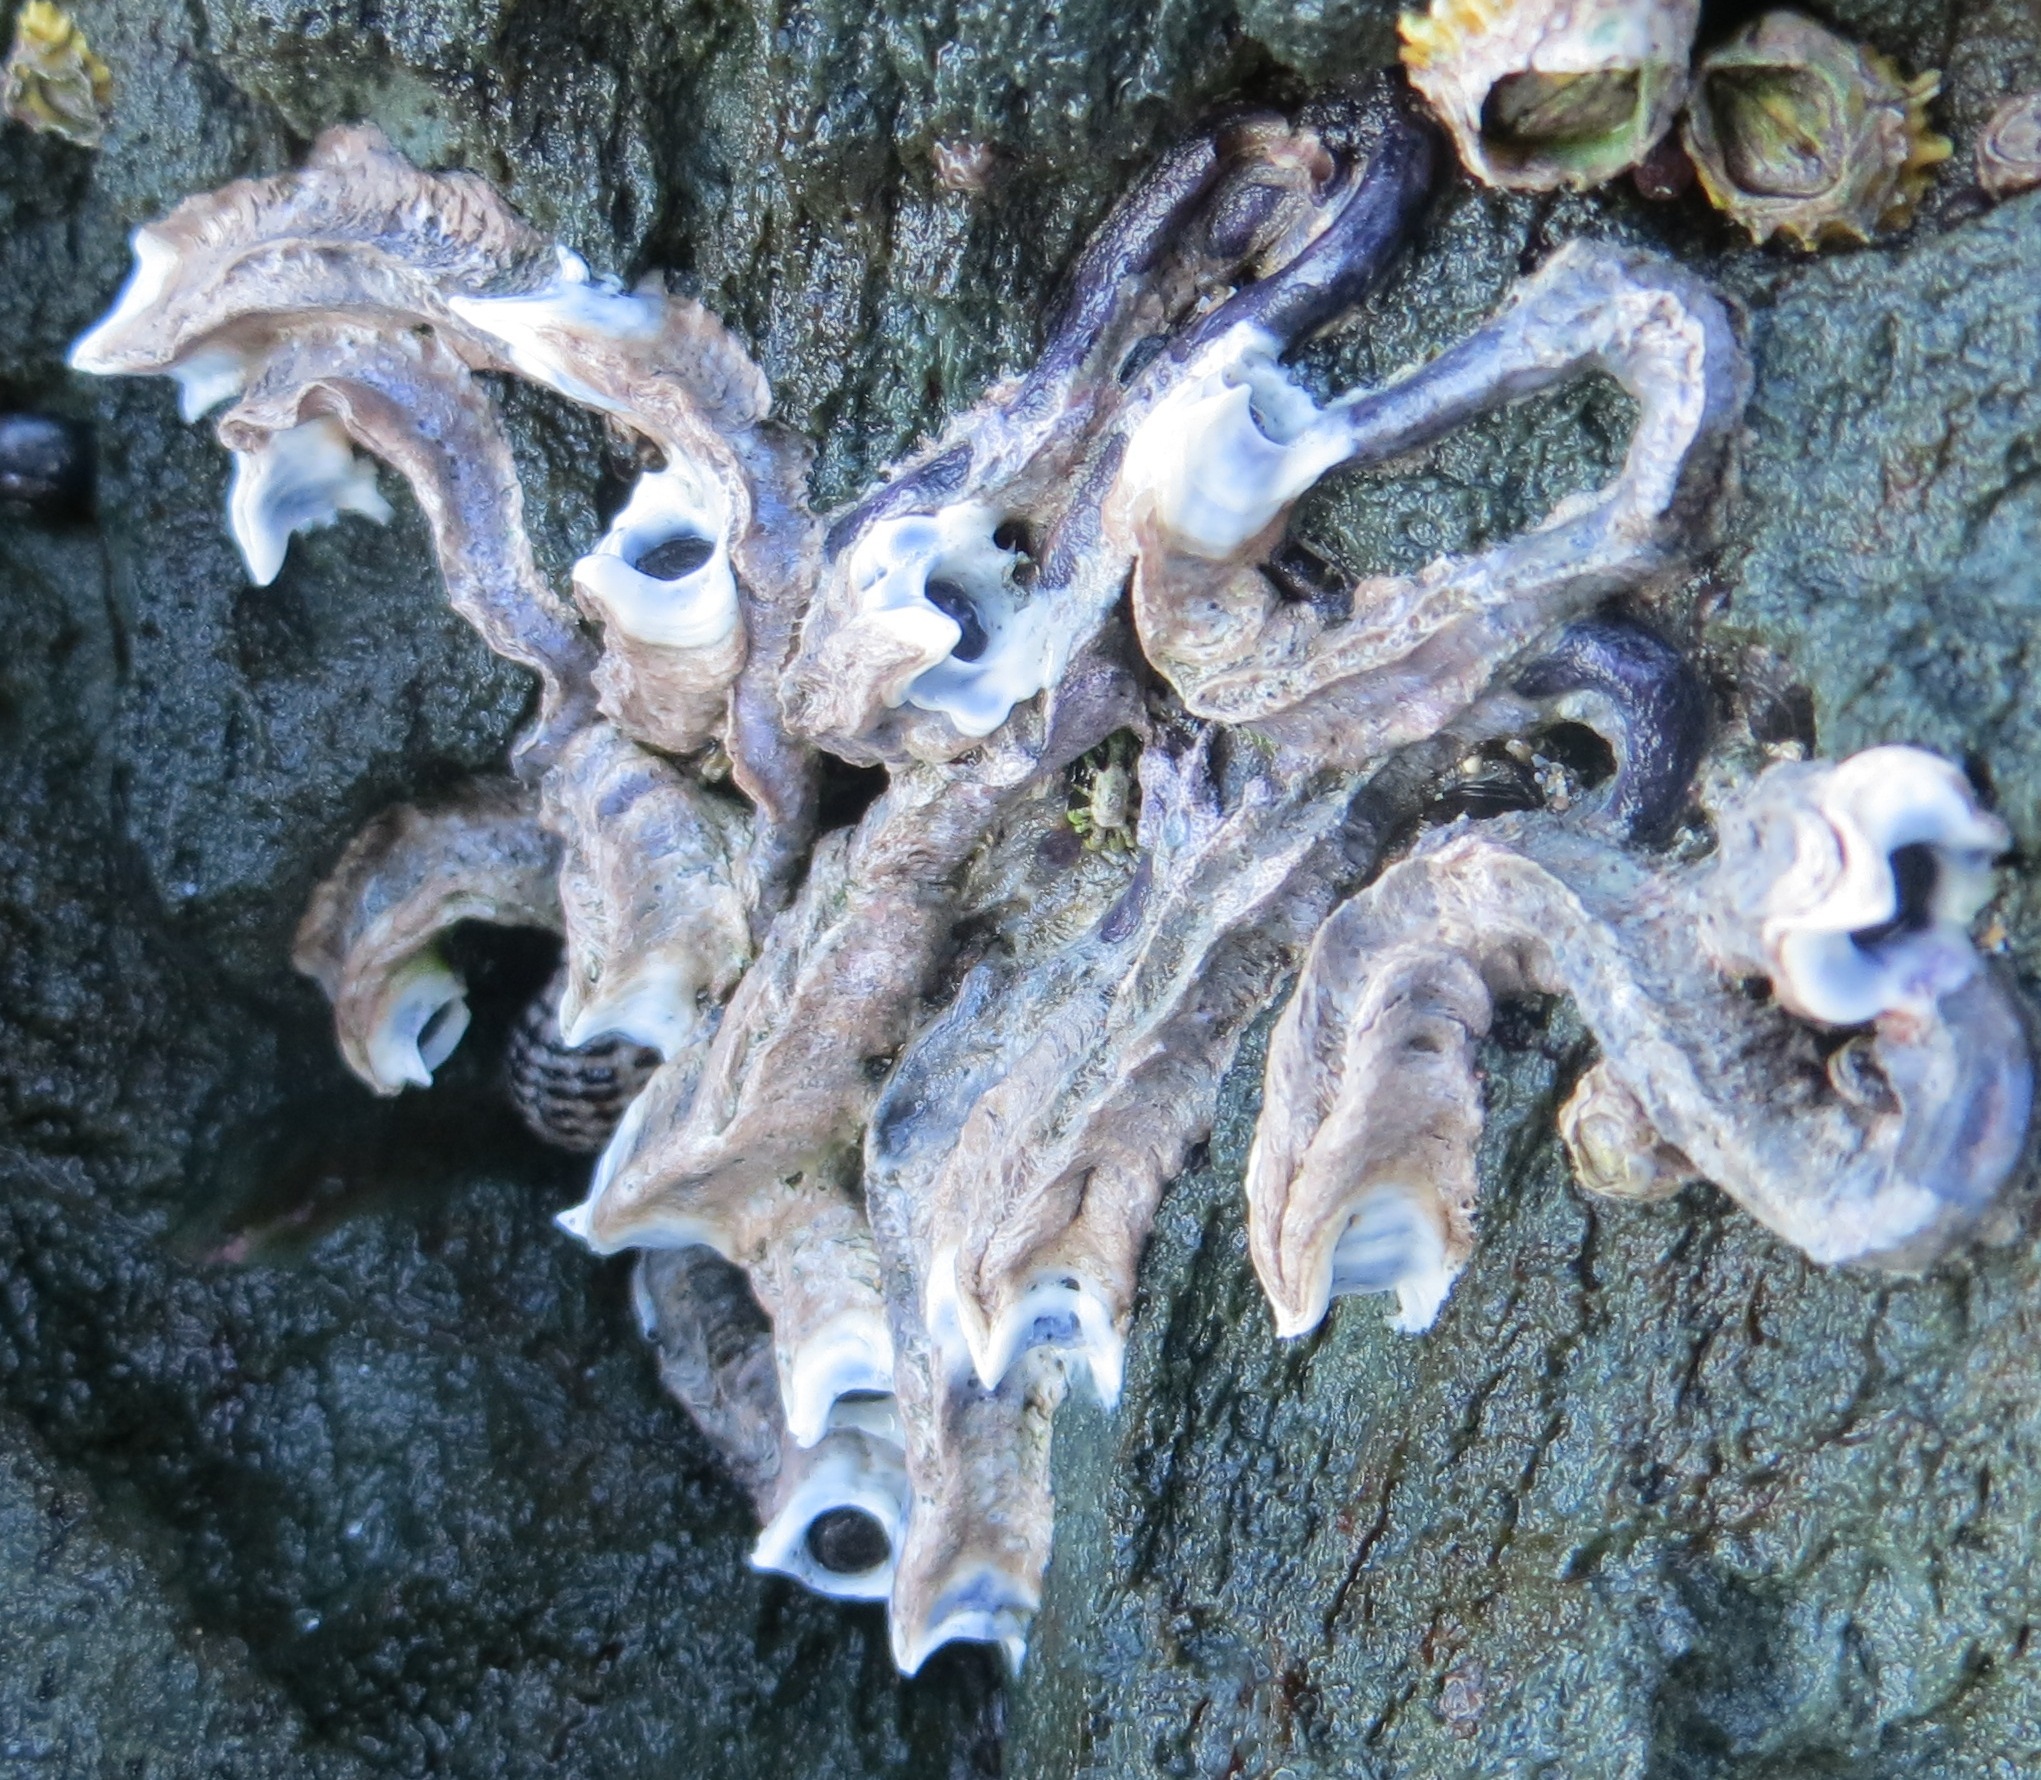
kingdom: Animalia
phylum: Annelida
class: Polychaeta
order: Sabellida
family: Serpulidae
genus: Spirobranchus
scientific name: Spirobranchus cariniferus
